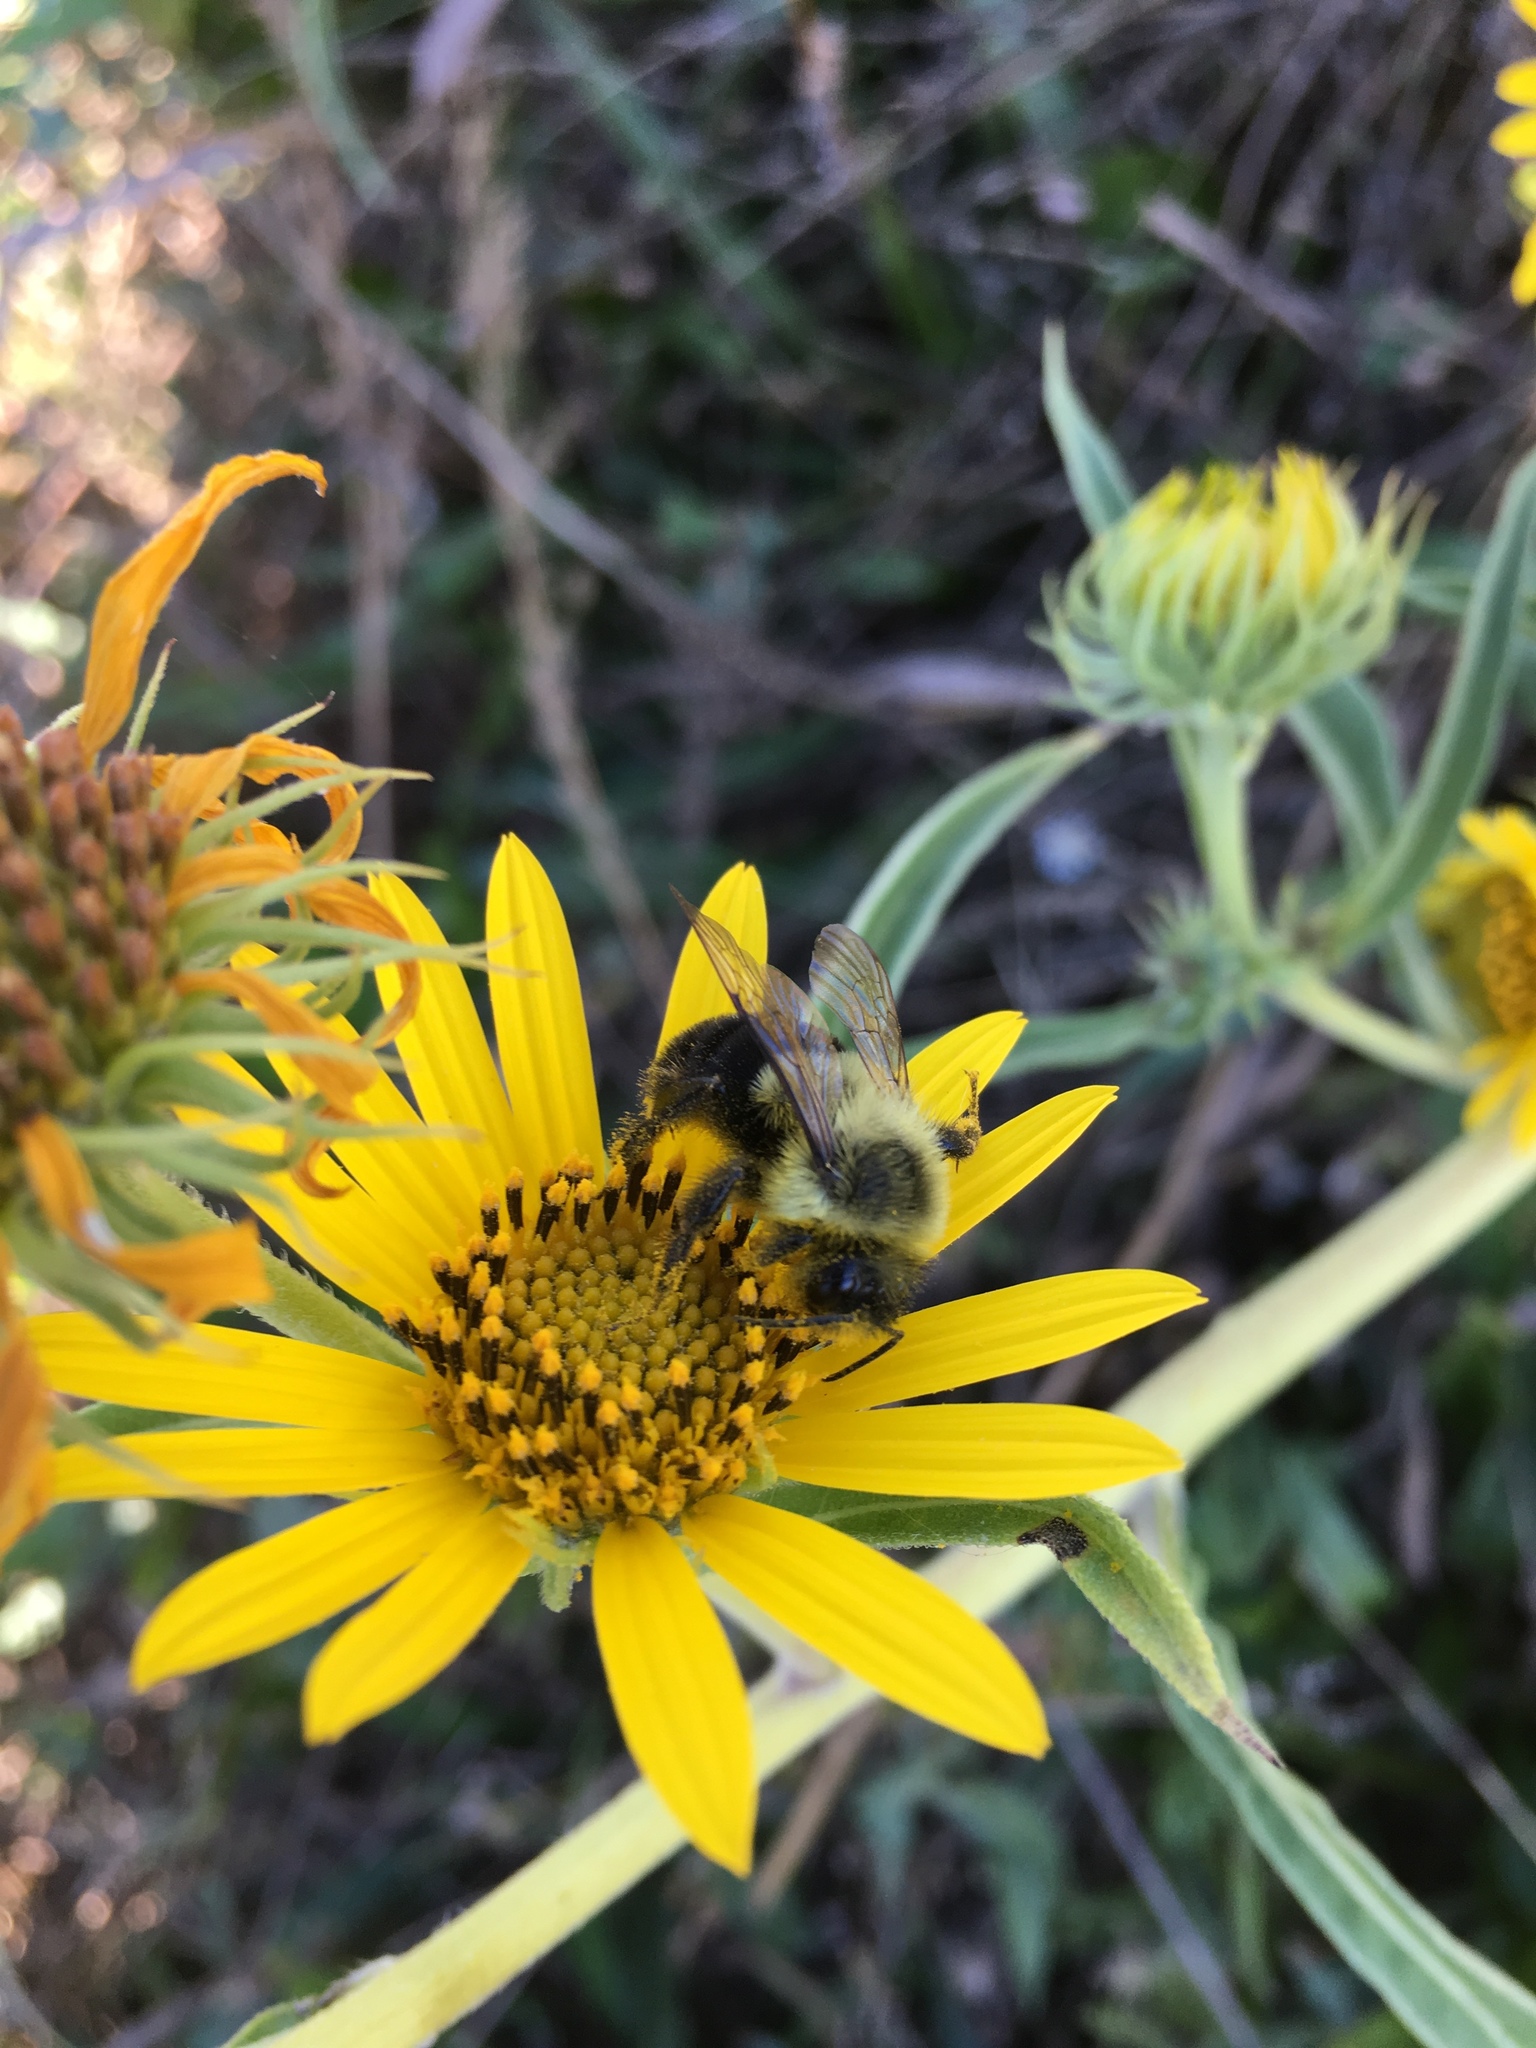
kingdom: Animalia
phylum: Arthropoda
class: Insecta
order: Hymenoptera
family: Apidae
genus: Bombus
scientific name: Bombus impatiens
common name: Common eastern bumble bee
